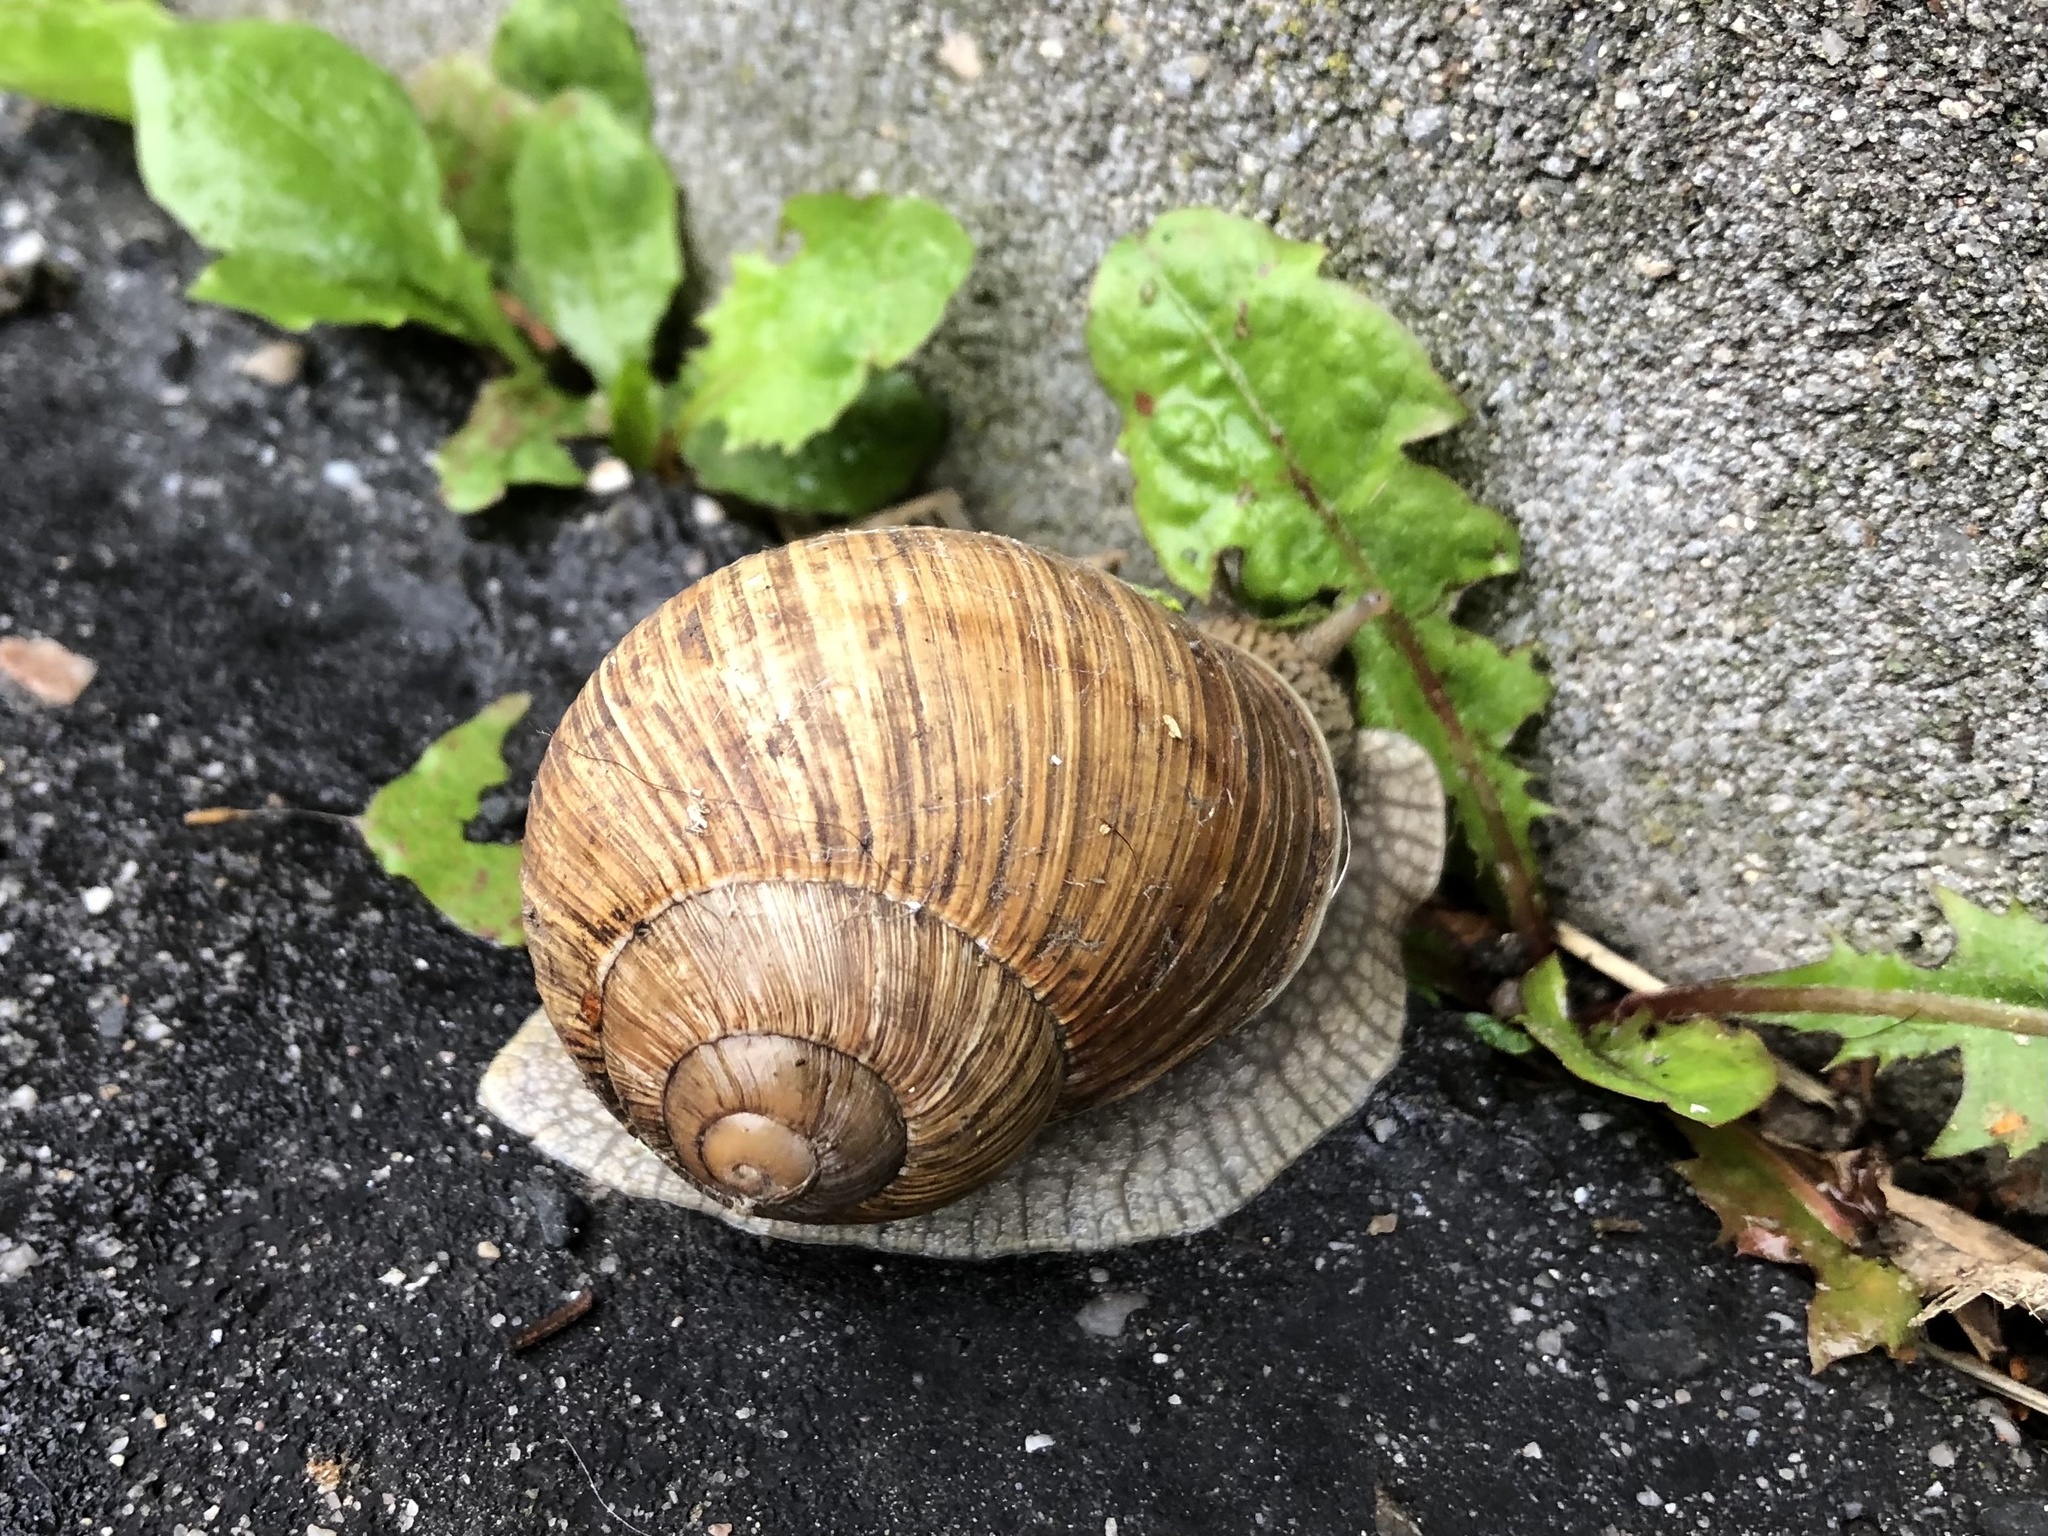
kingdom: Animalia
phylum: Mollusca
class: Gastropoda
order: Stylommatophora
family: Helicidae
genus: Helix
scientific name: Helix pomatia
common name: Roman snail
